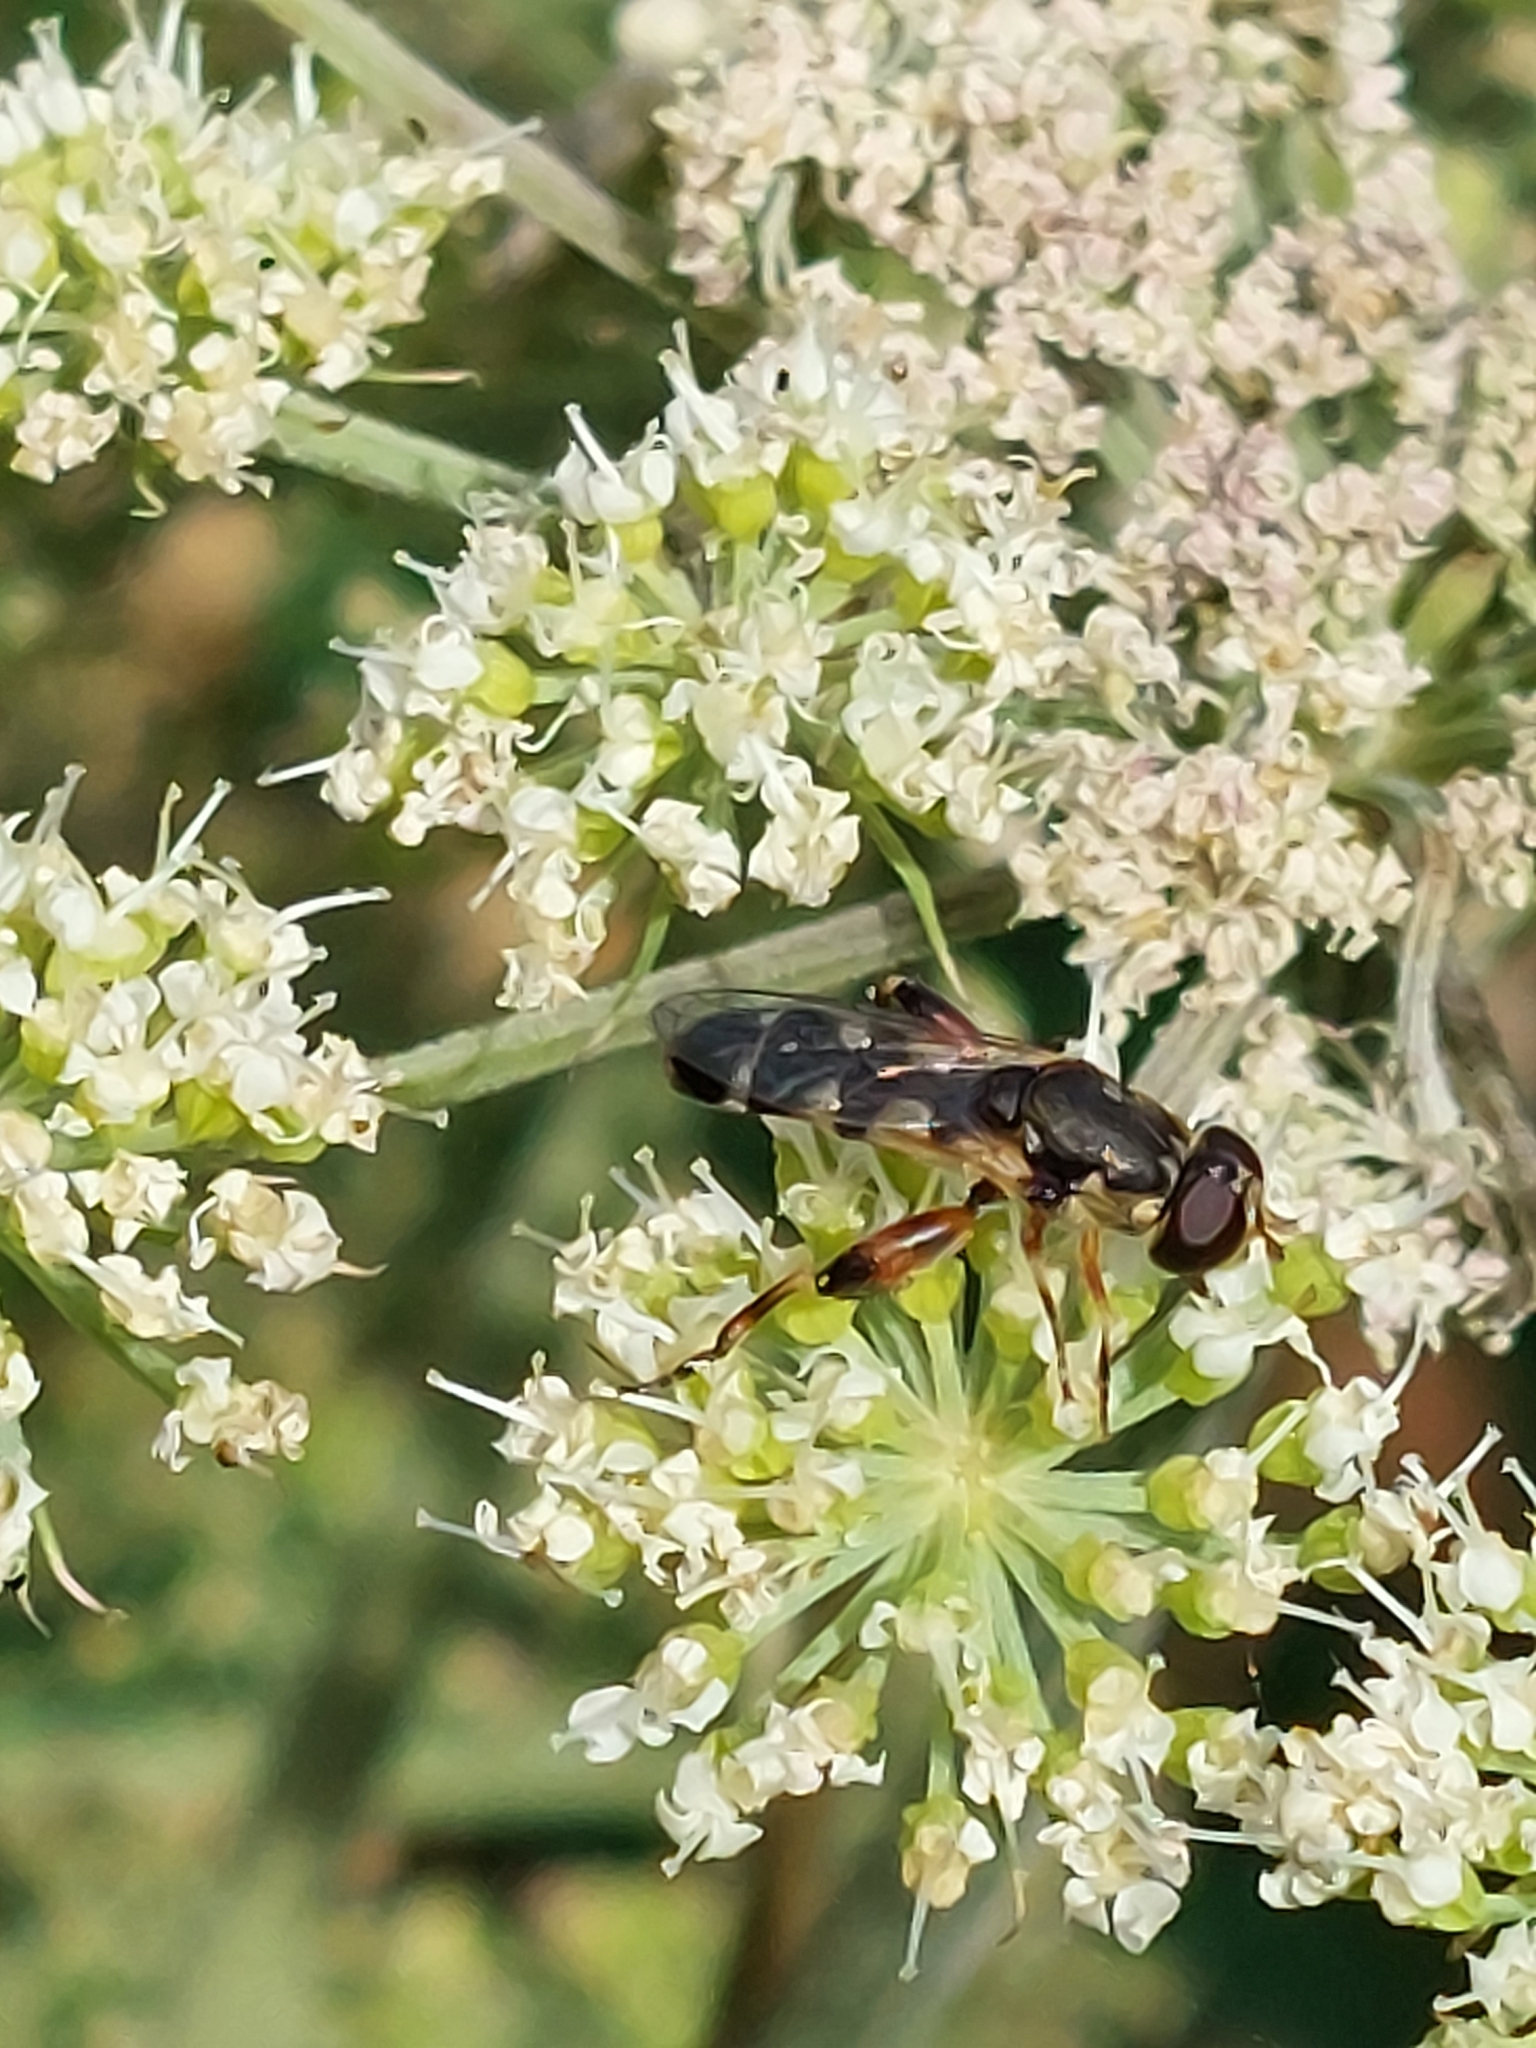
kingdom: Animalia
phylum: Arthropoda
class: Insecta
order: Diptera
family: Syrphidae
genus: Syritta
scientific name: Syritta pipiens
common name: Hover fly
